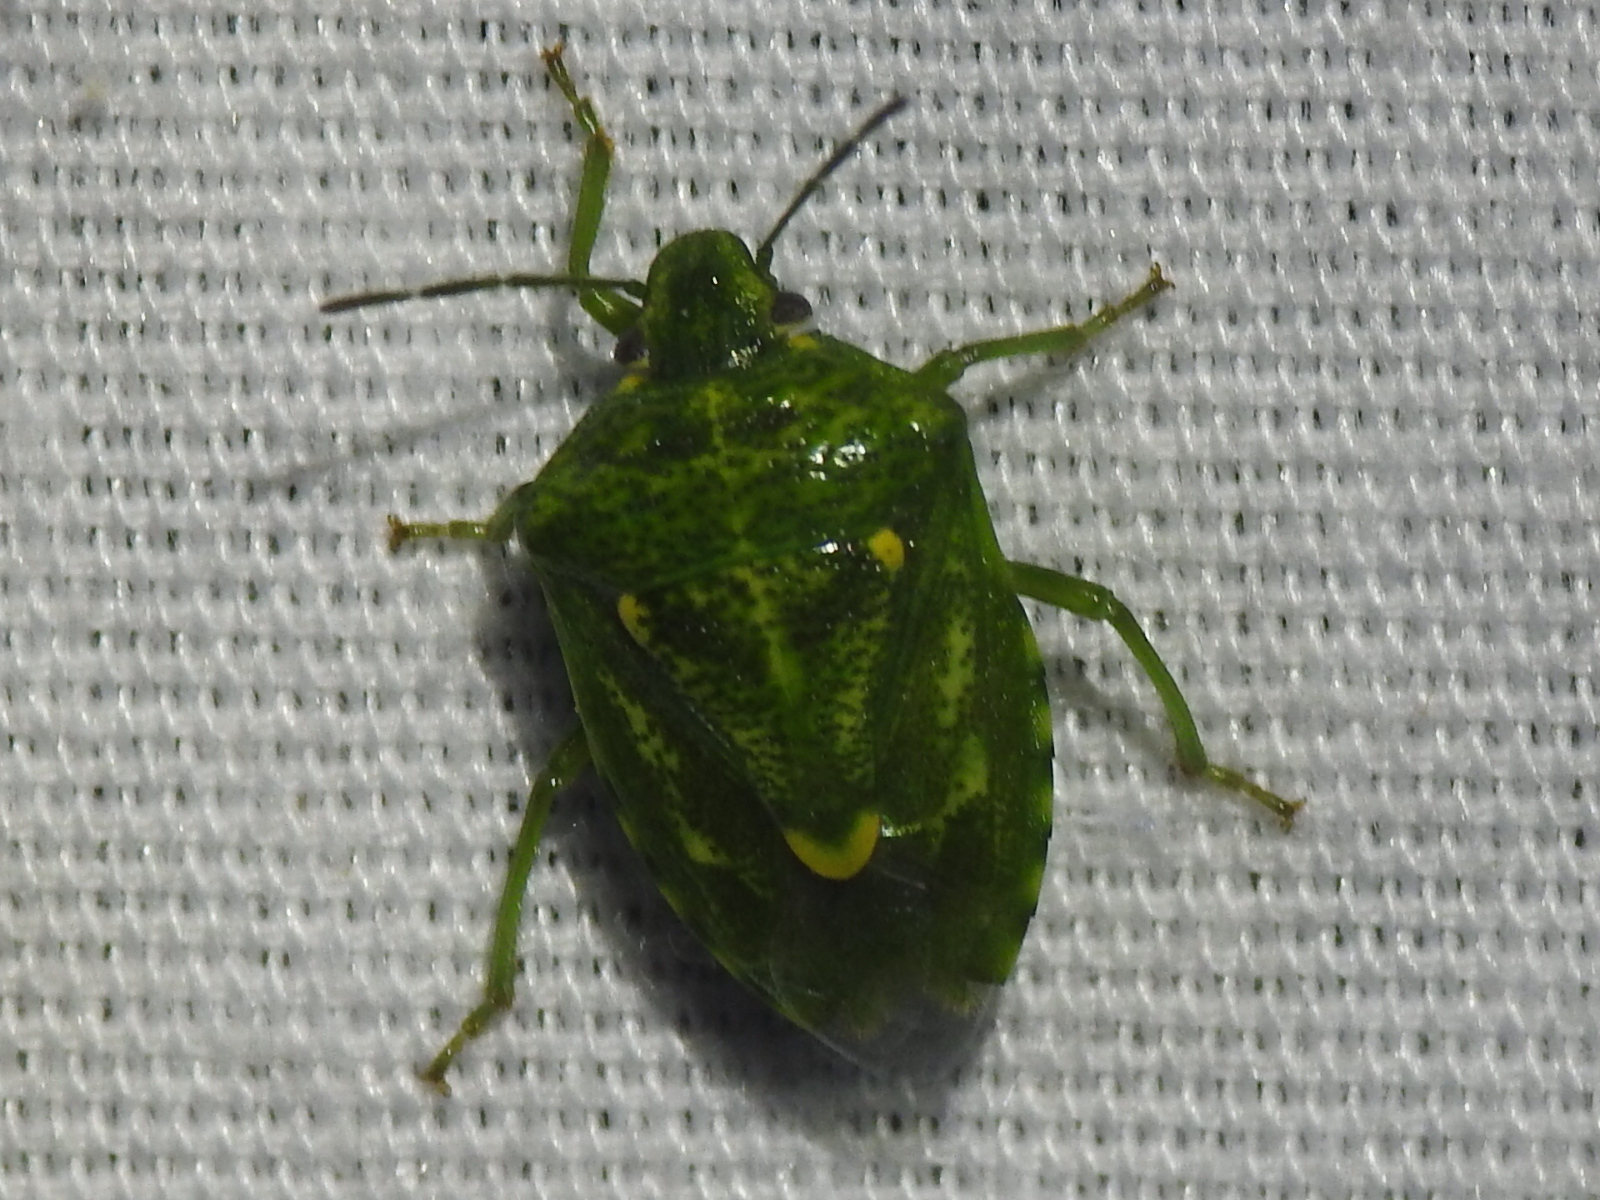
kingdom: Animalia
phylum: Arthropoda
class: Insecta
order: Hemiptera
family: Pentatomidae
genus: Banasa
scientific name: Banasa euchlora
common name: Cedar berry bug
